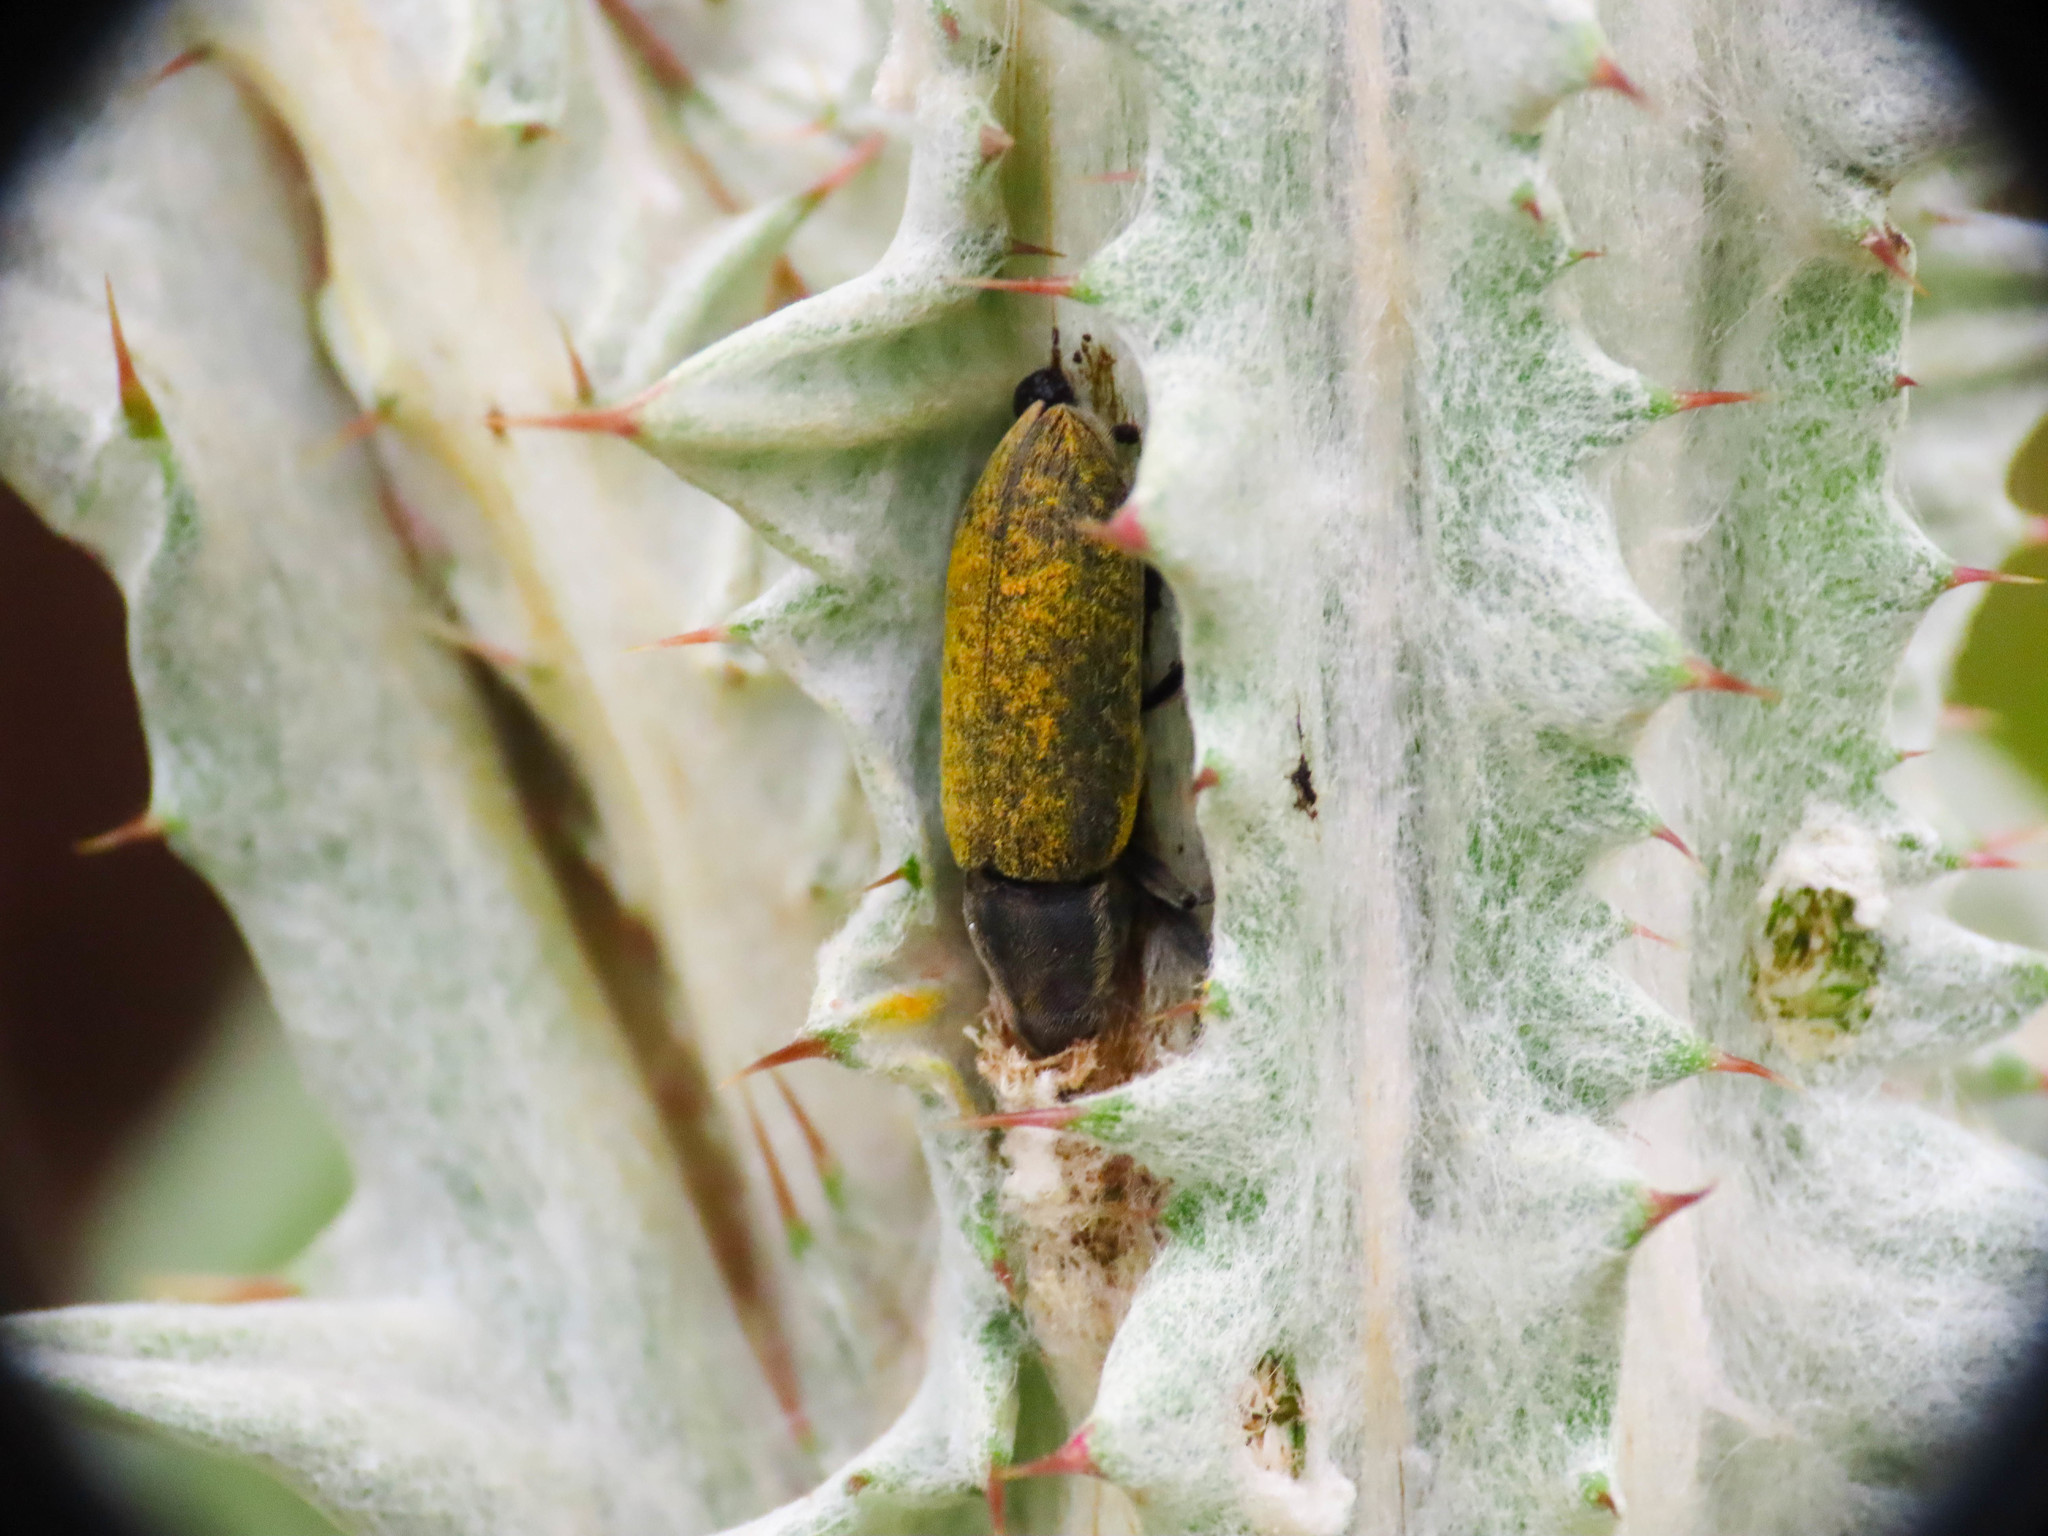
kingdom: Animalia
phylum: Arthropoda
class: Insecta
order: Coleoptera
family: Curculionidae
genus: Lixus
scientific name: Lixus cardui
